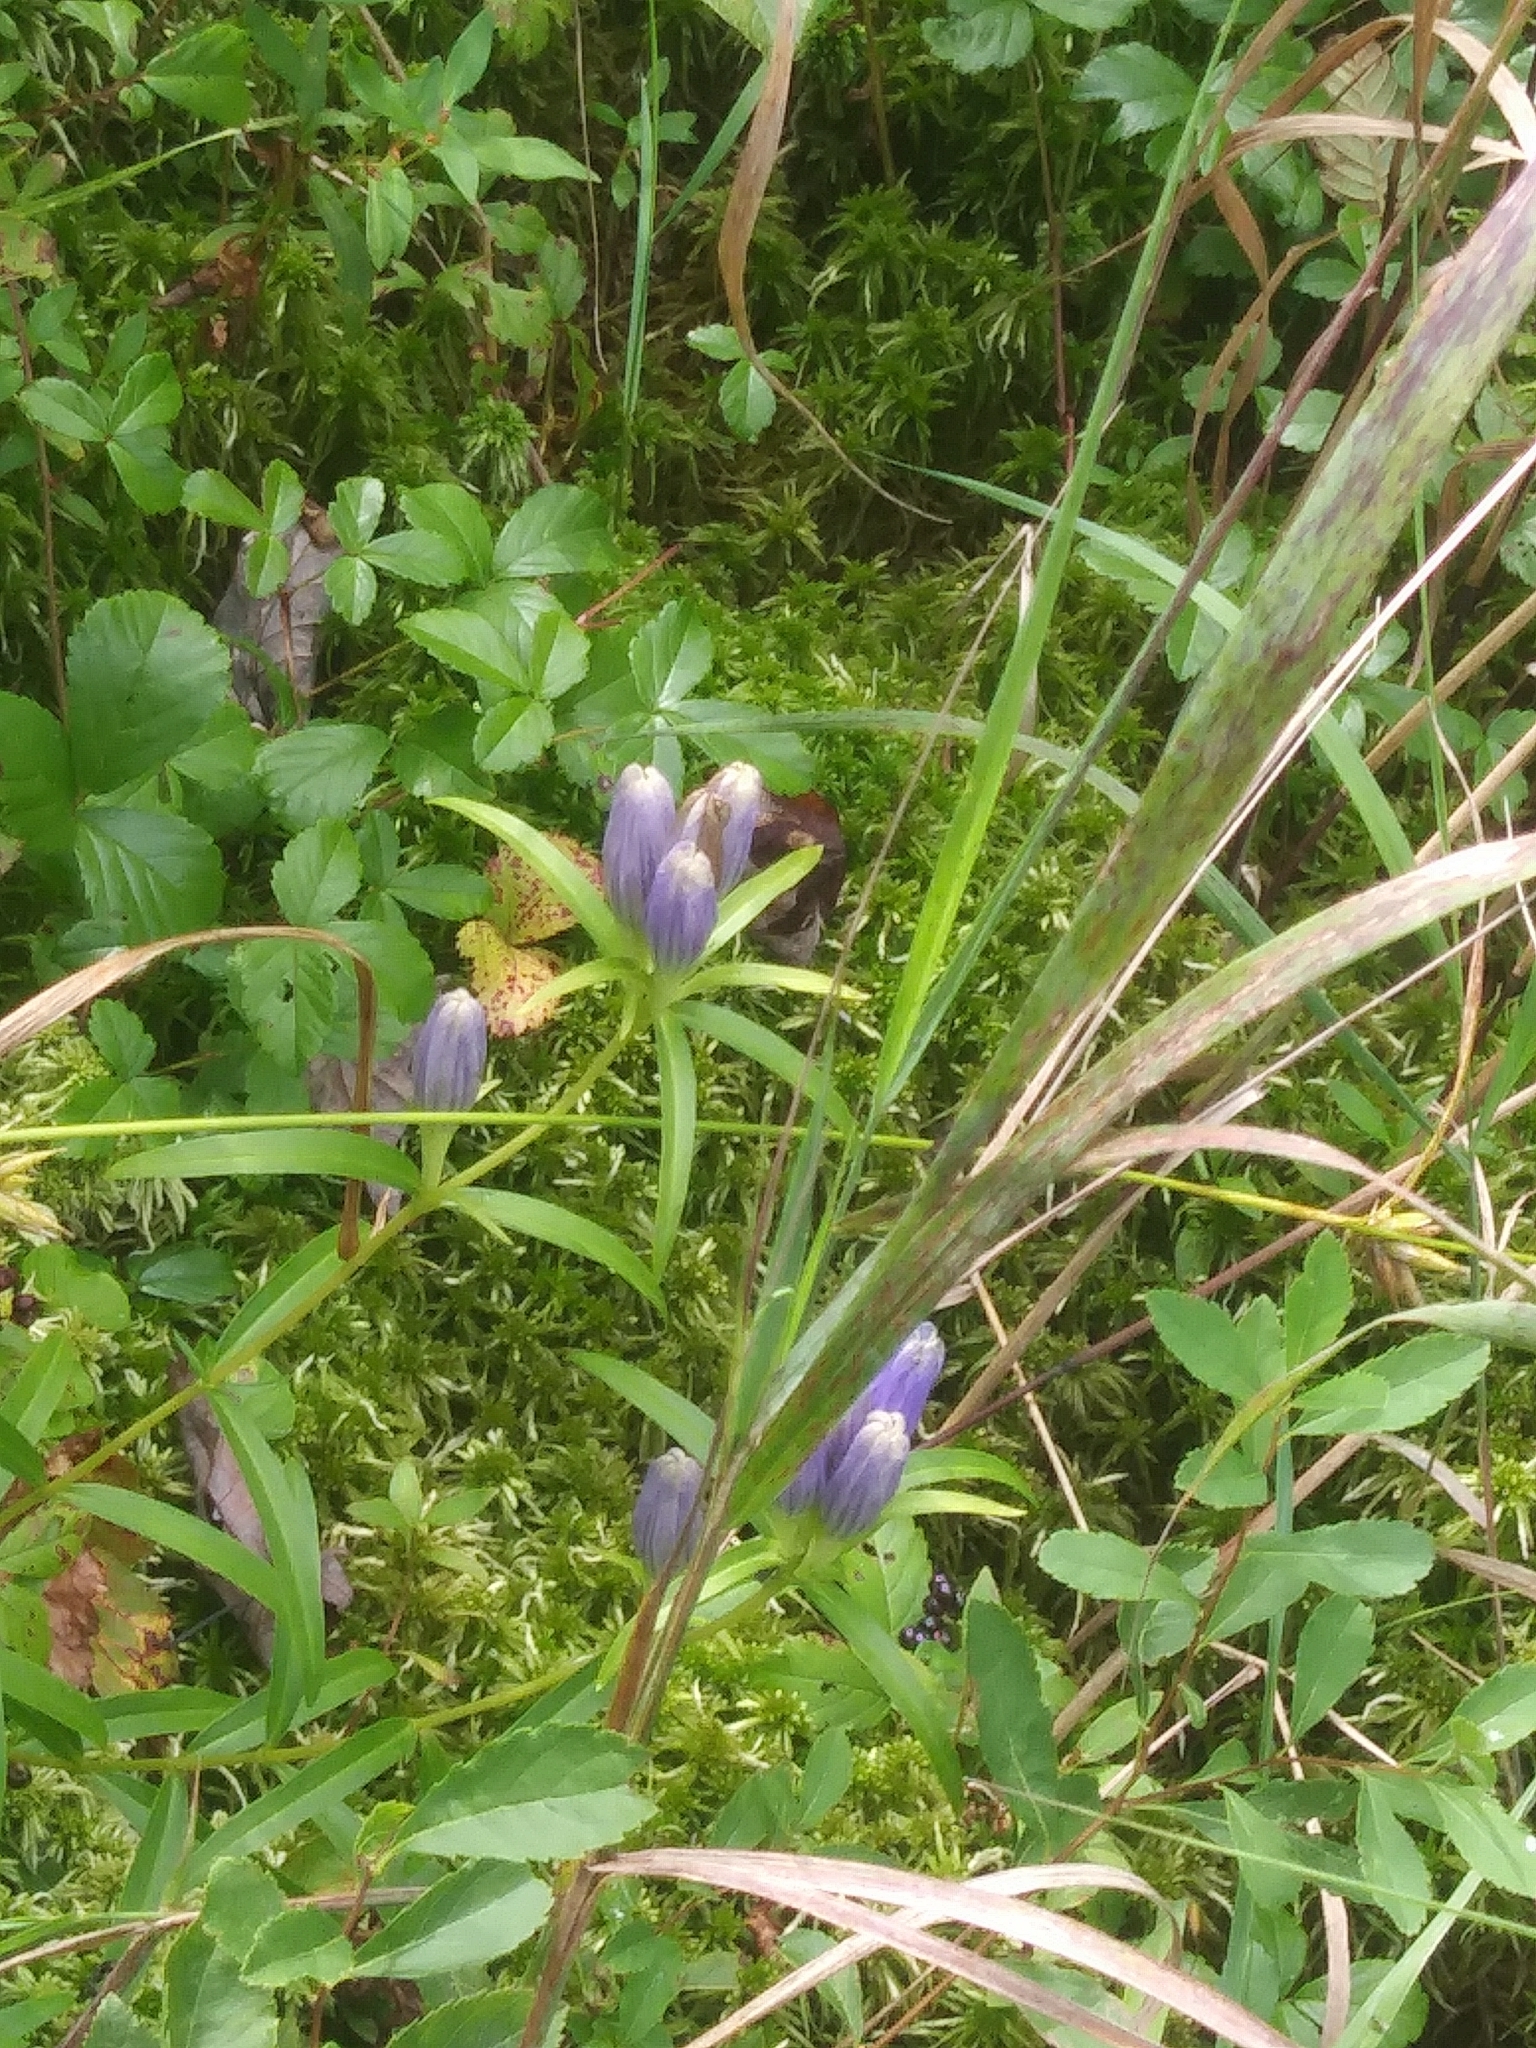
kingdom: Plantae
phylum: Tracheophyta
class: Magnoliopsida
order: Gentianales
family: Gentianaceae
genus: Gentiana
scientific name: Gentiana linearis
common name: Bastard gentian
